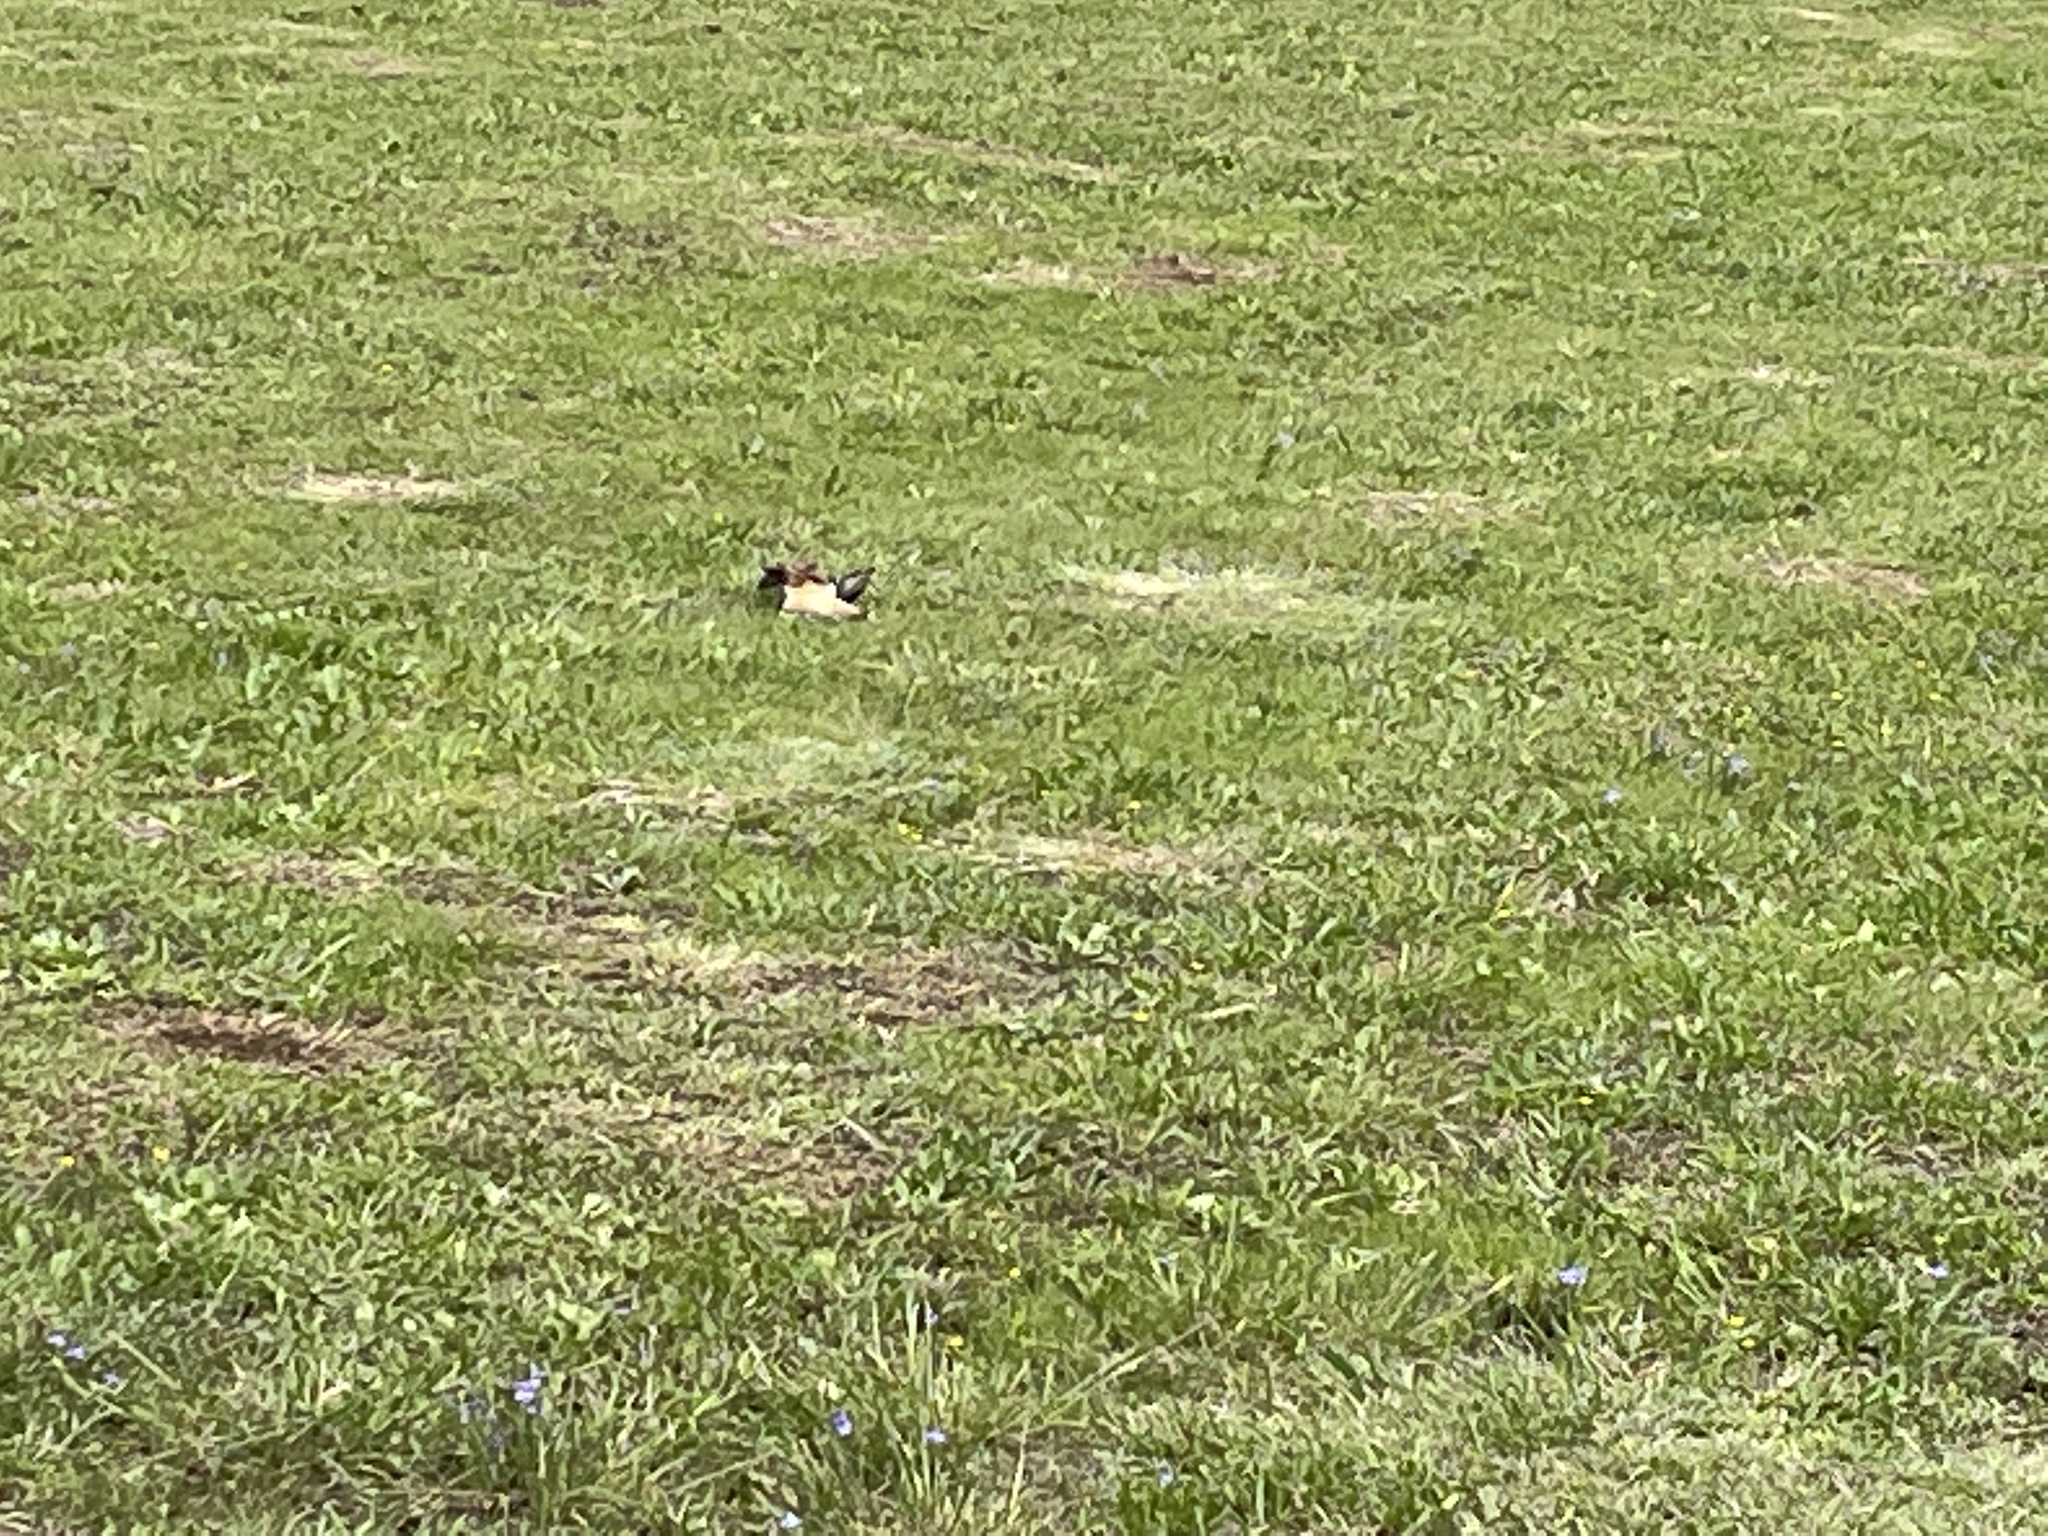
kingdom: Animalia
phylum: Chordata
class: Aves
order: Charadriiformes
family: Charadriidae
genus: Charadrius
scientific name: Charadrius vociferus
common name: Killdeer
